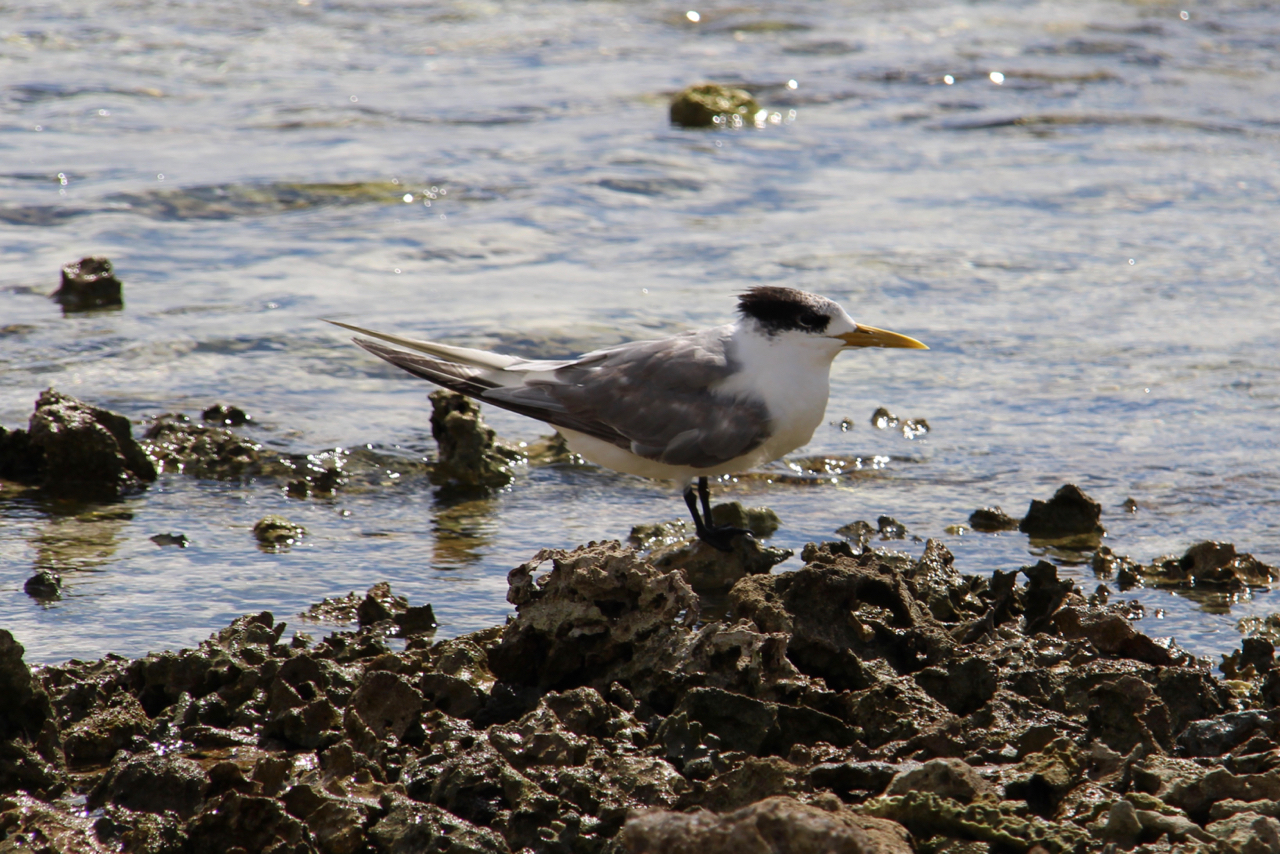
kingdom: Animalia
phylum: Chordata
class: Aves
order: Charadriiformes
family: Laridae
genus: Thalasseus
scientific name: Thalasseus bergii
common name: Greater crested tern
